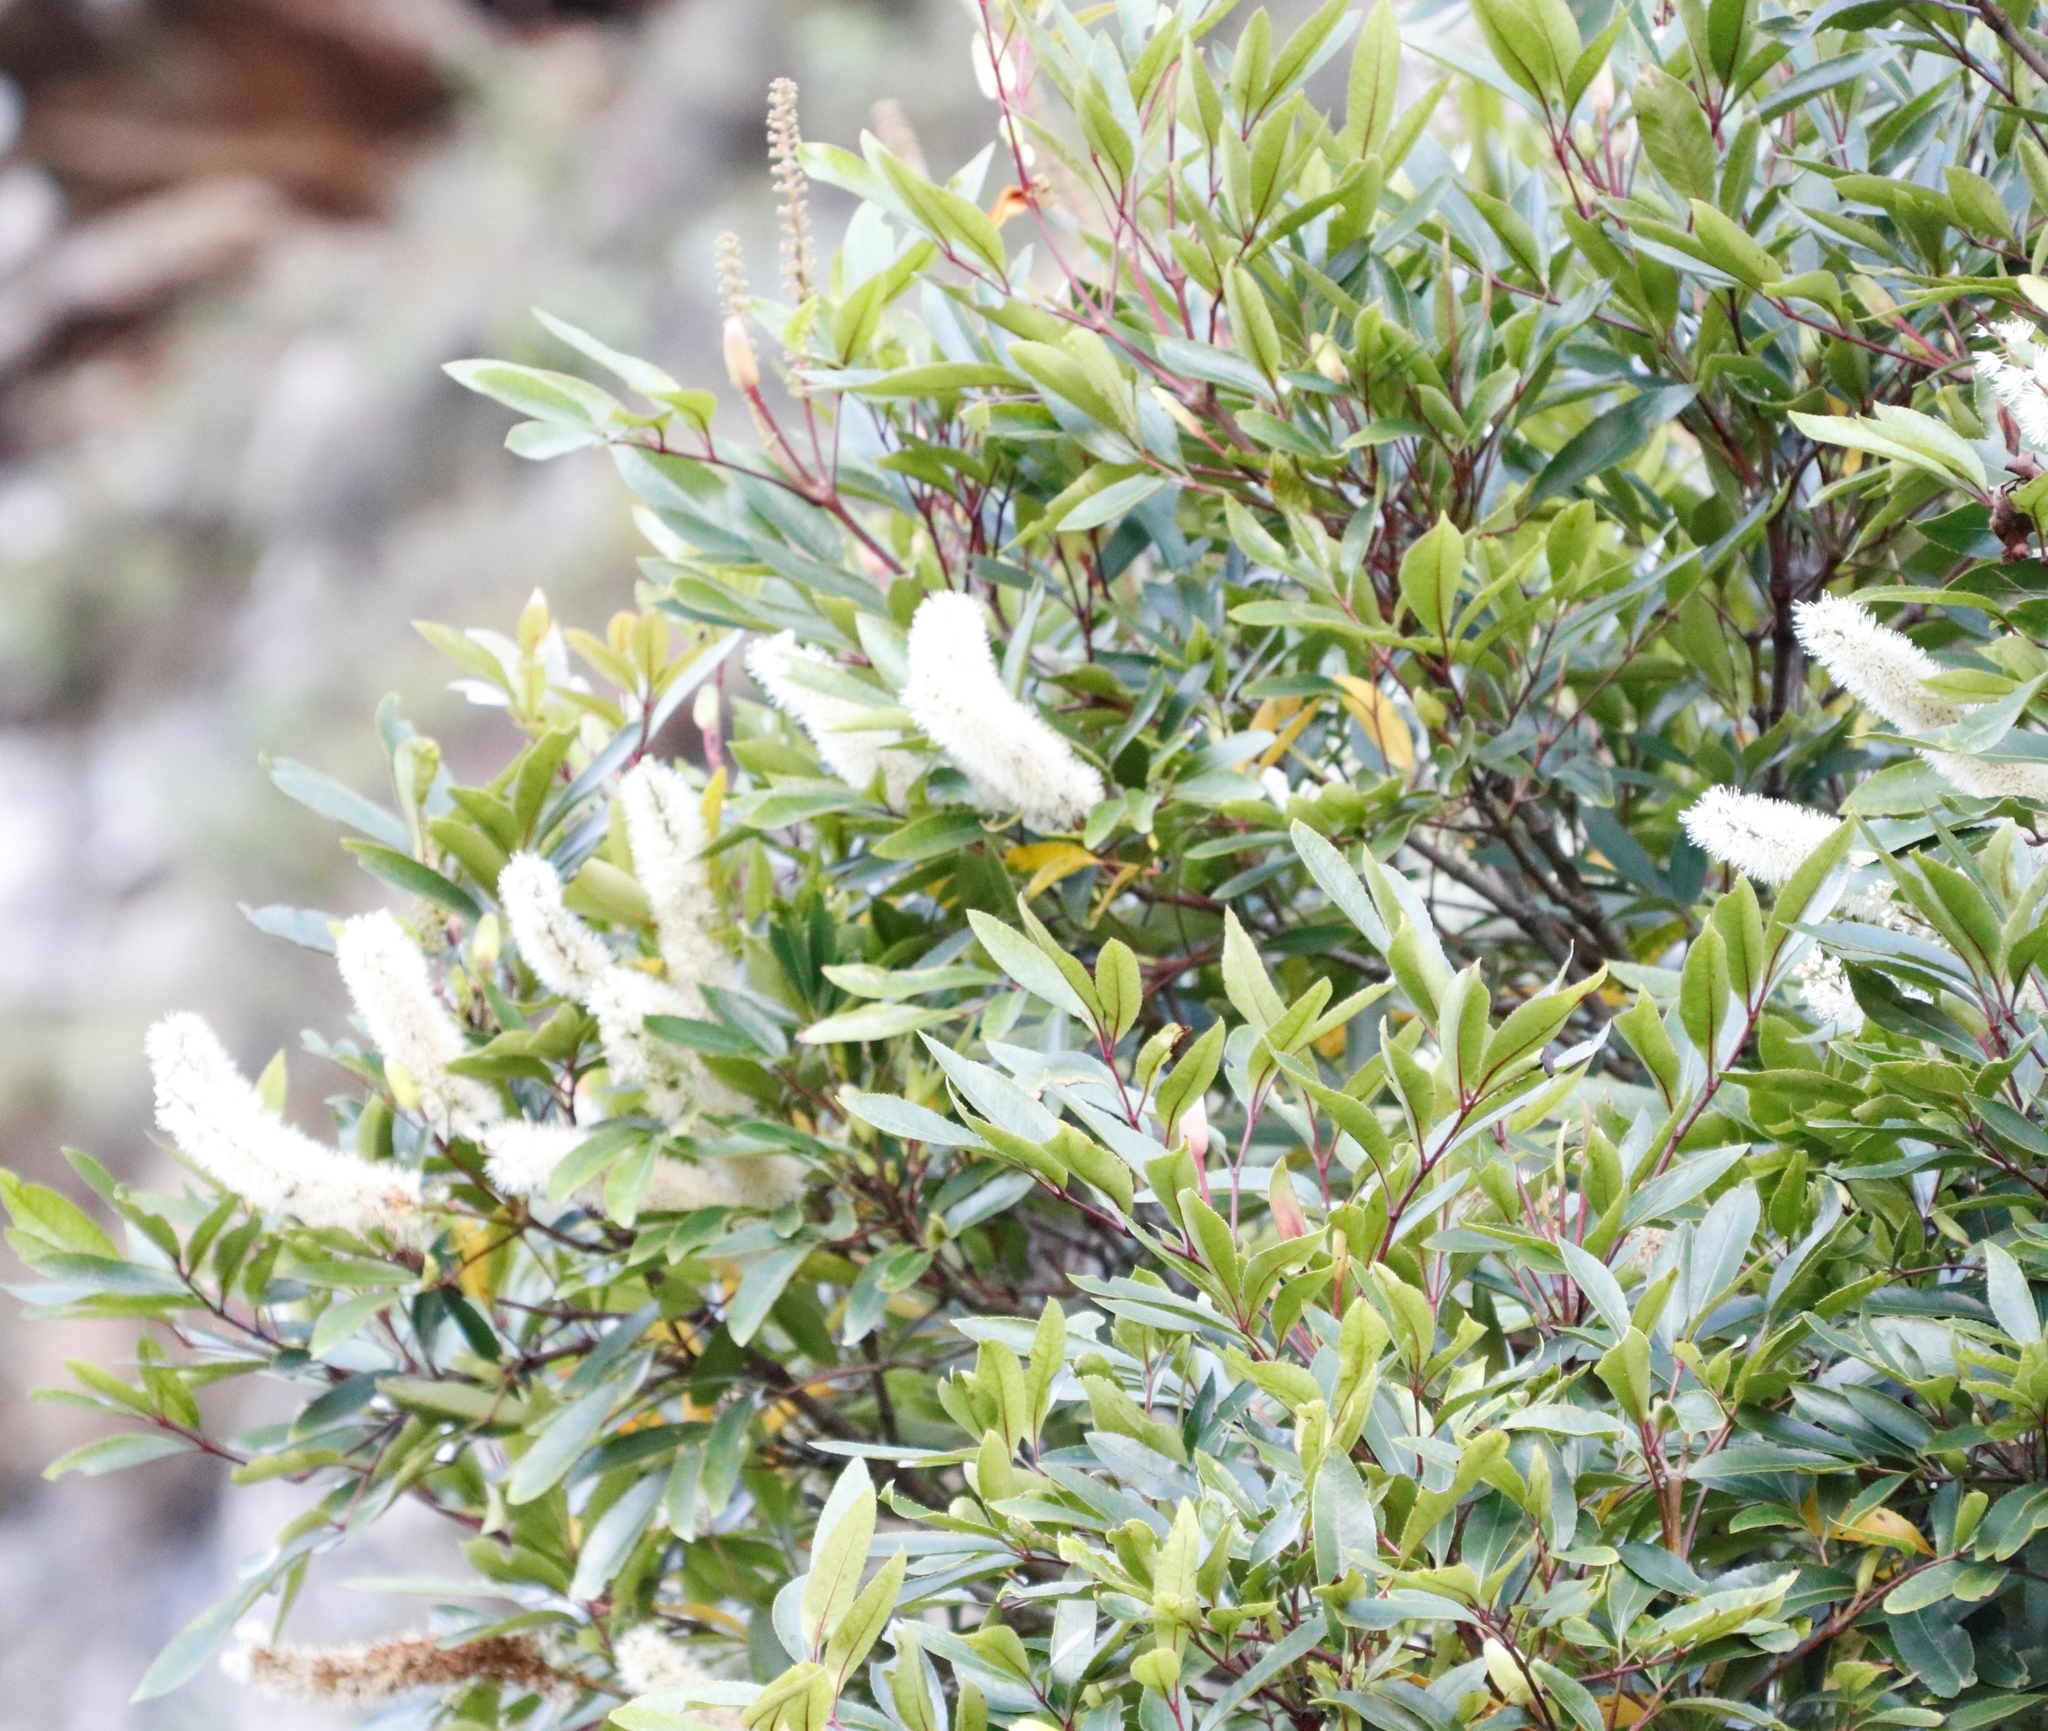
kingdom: Plantae
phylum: Tracheophyta
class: Magnoliopsida
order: Oxalidales
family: Cunoniaceae
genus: Cunonia
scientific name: Cunonia capensis
